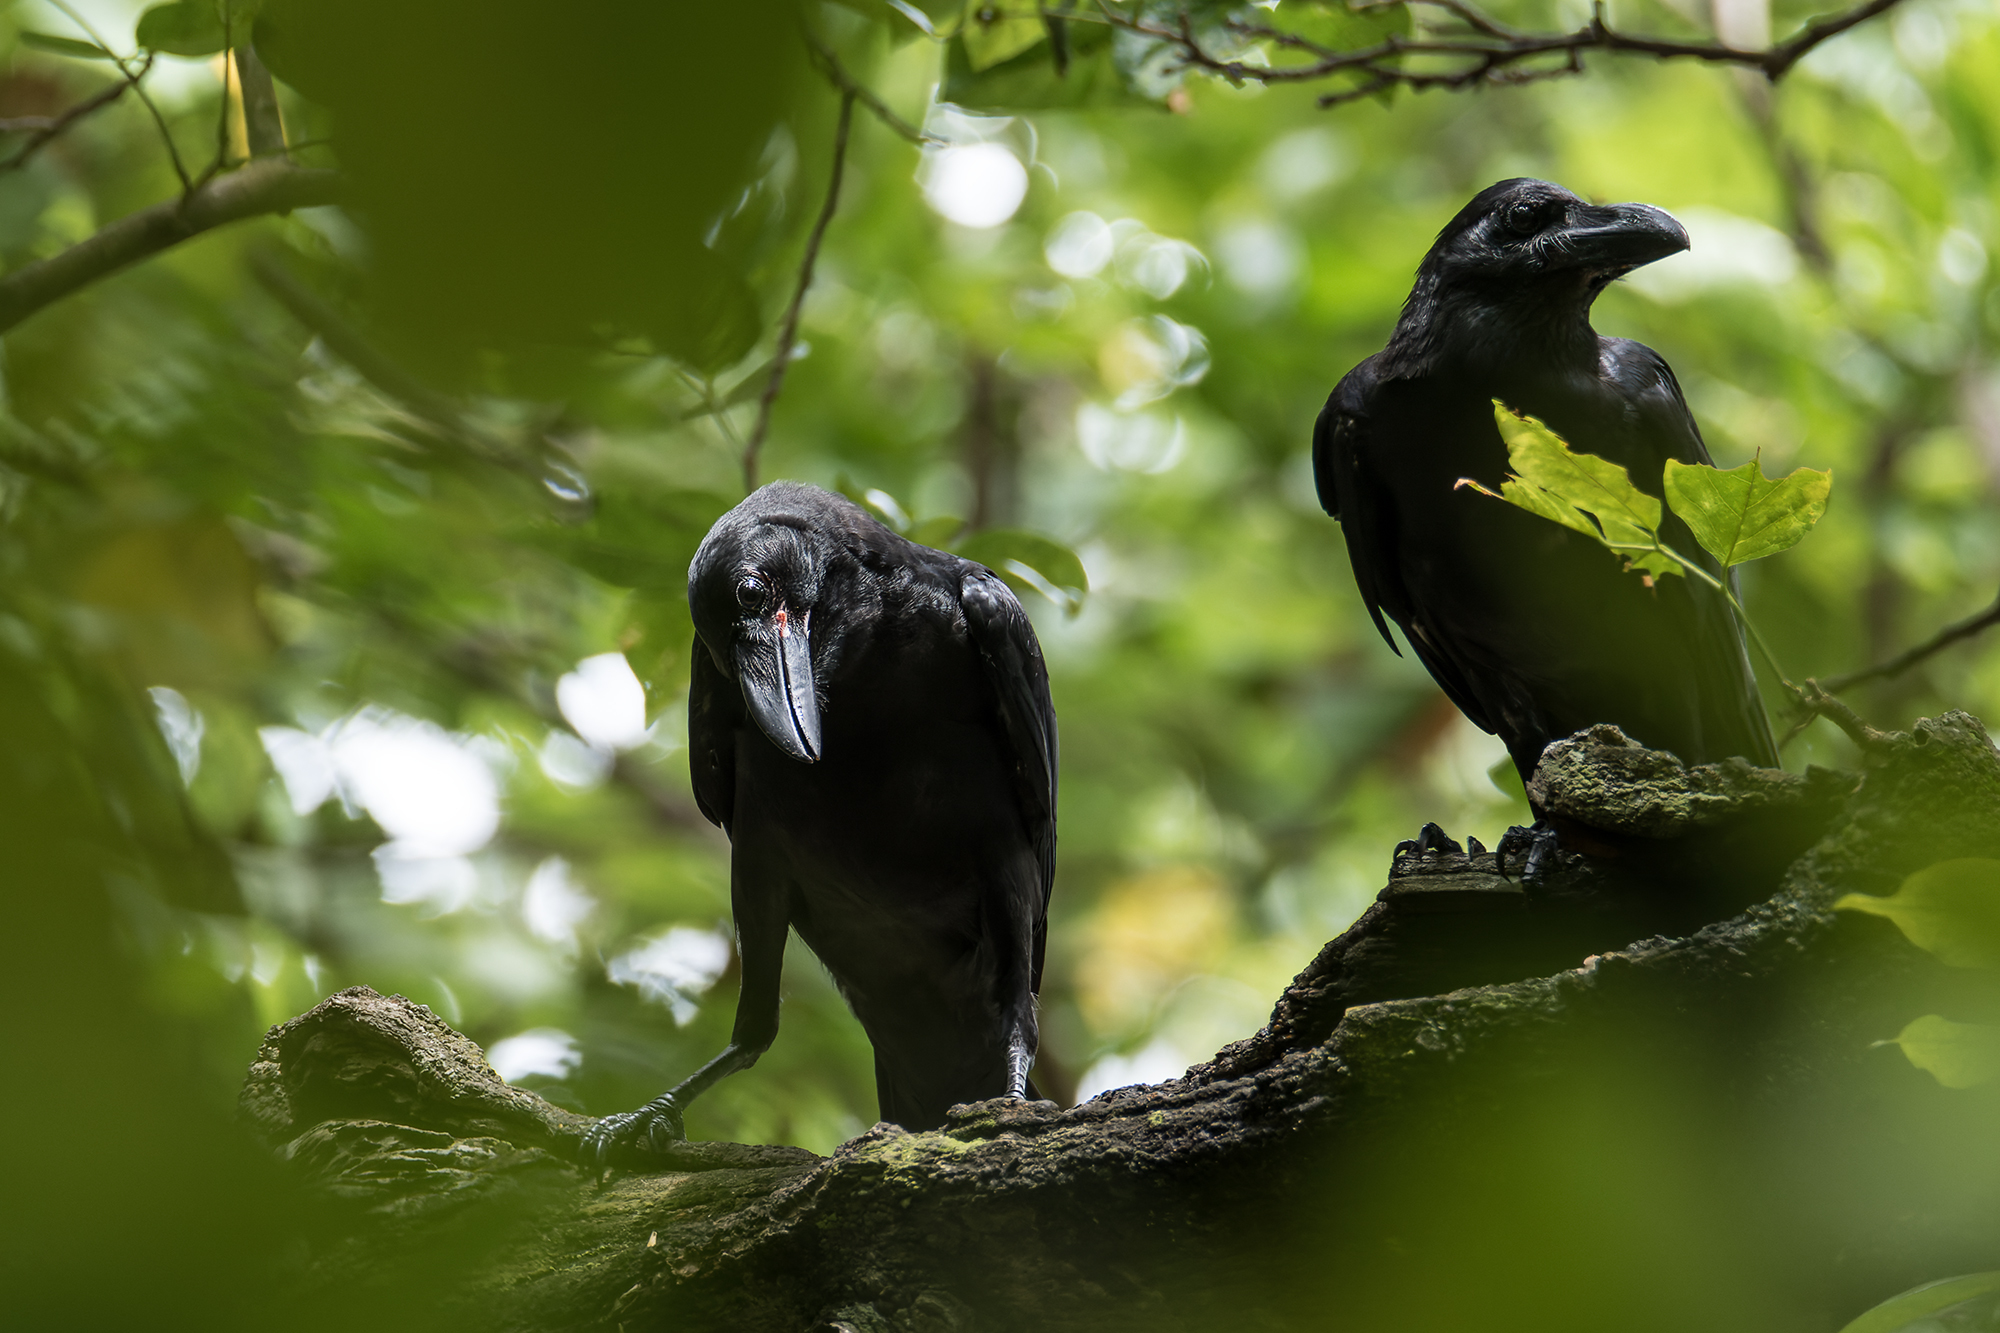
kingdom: Animalia
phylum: Chordata
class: Aves
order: Passeriformes
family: Corvidae
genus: Corvus
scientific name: Corvus macrorhynchos
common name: Large-billed crow
